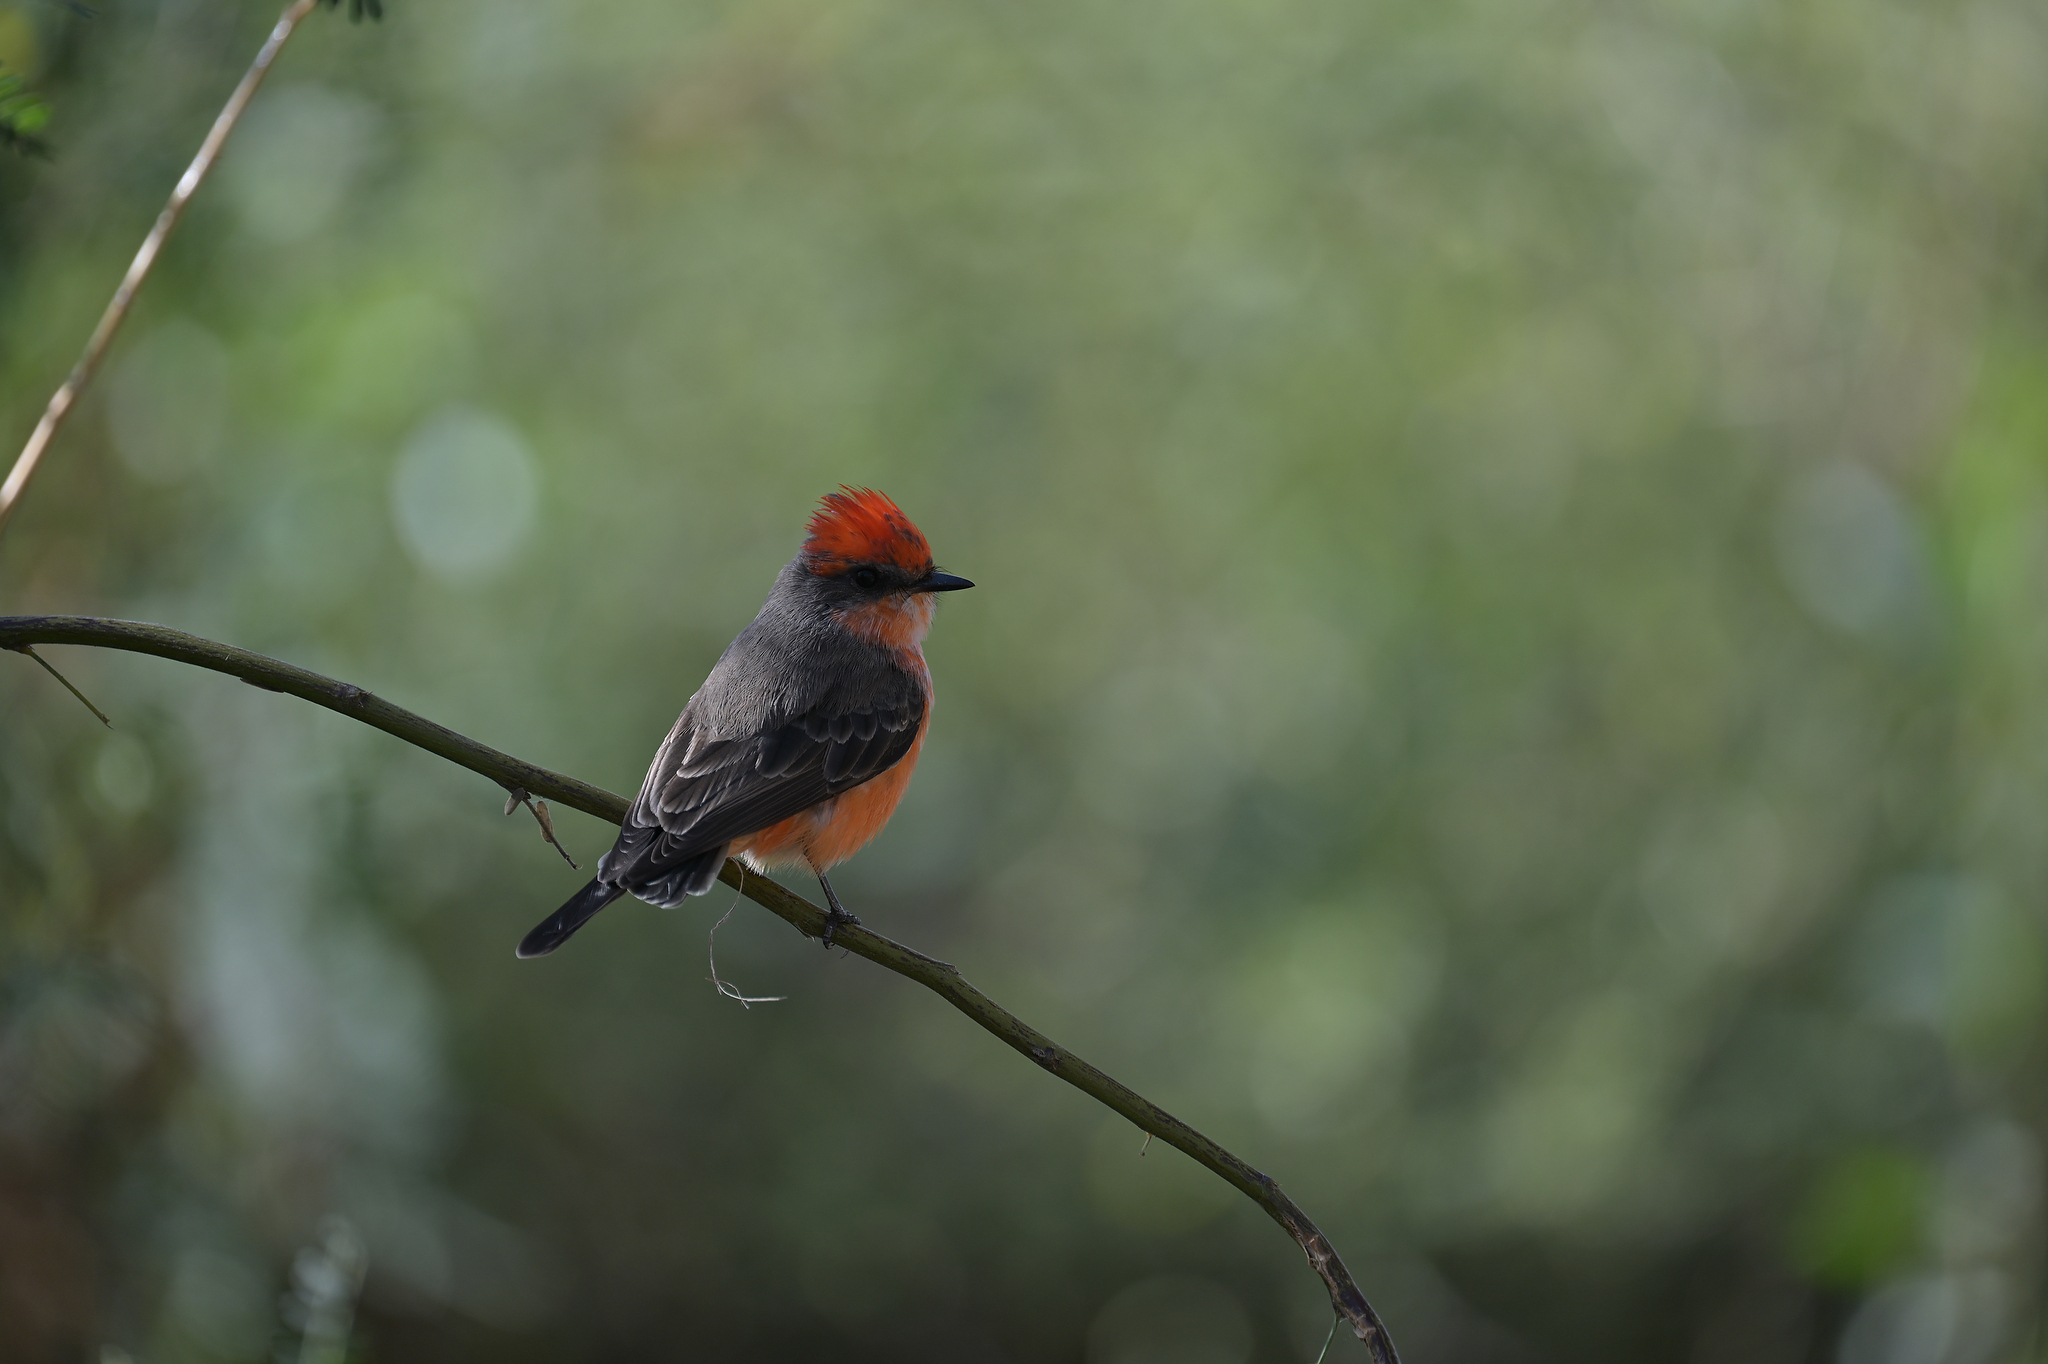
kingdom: Animalia
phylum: Chordata
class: Aves
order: Passeriformes
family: Tyrannidae
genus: Pyrocephalus
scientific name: Pyrocephalus rubinus
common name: Vermilion flycatcher
